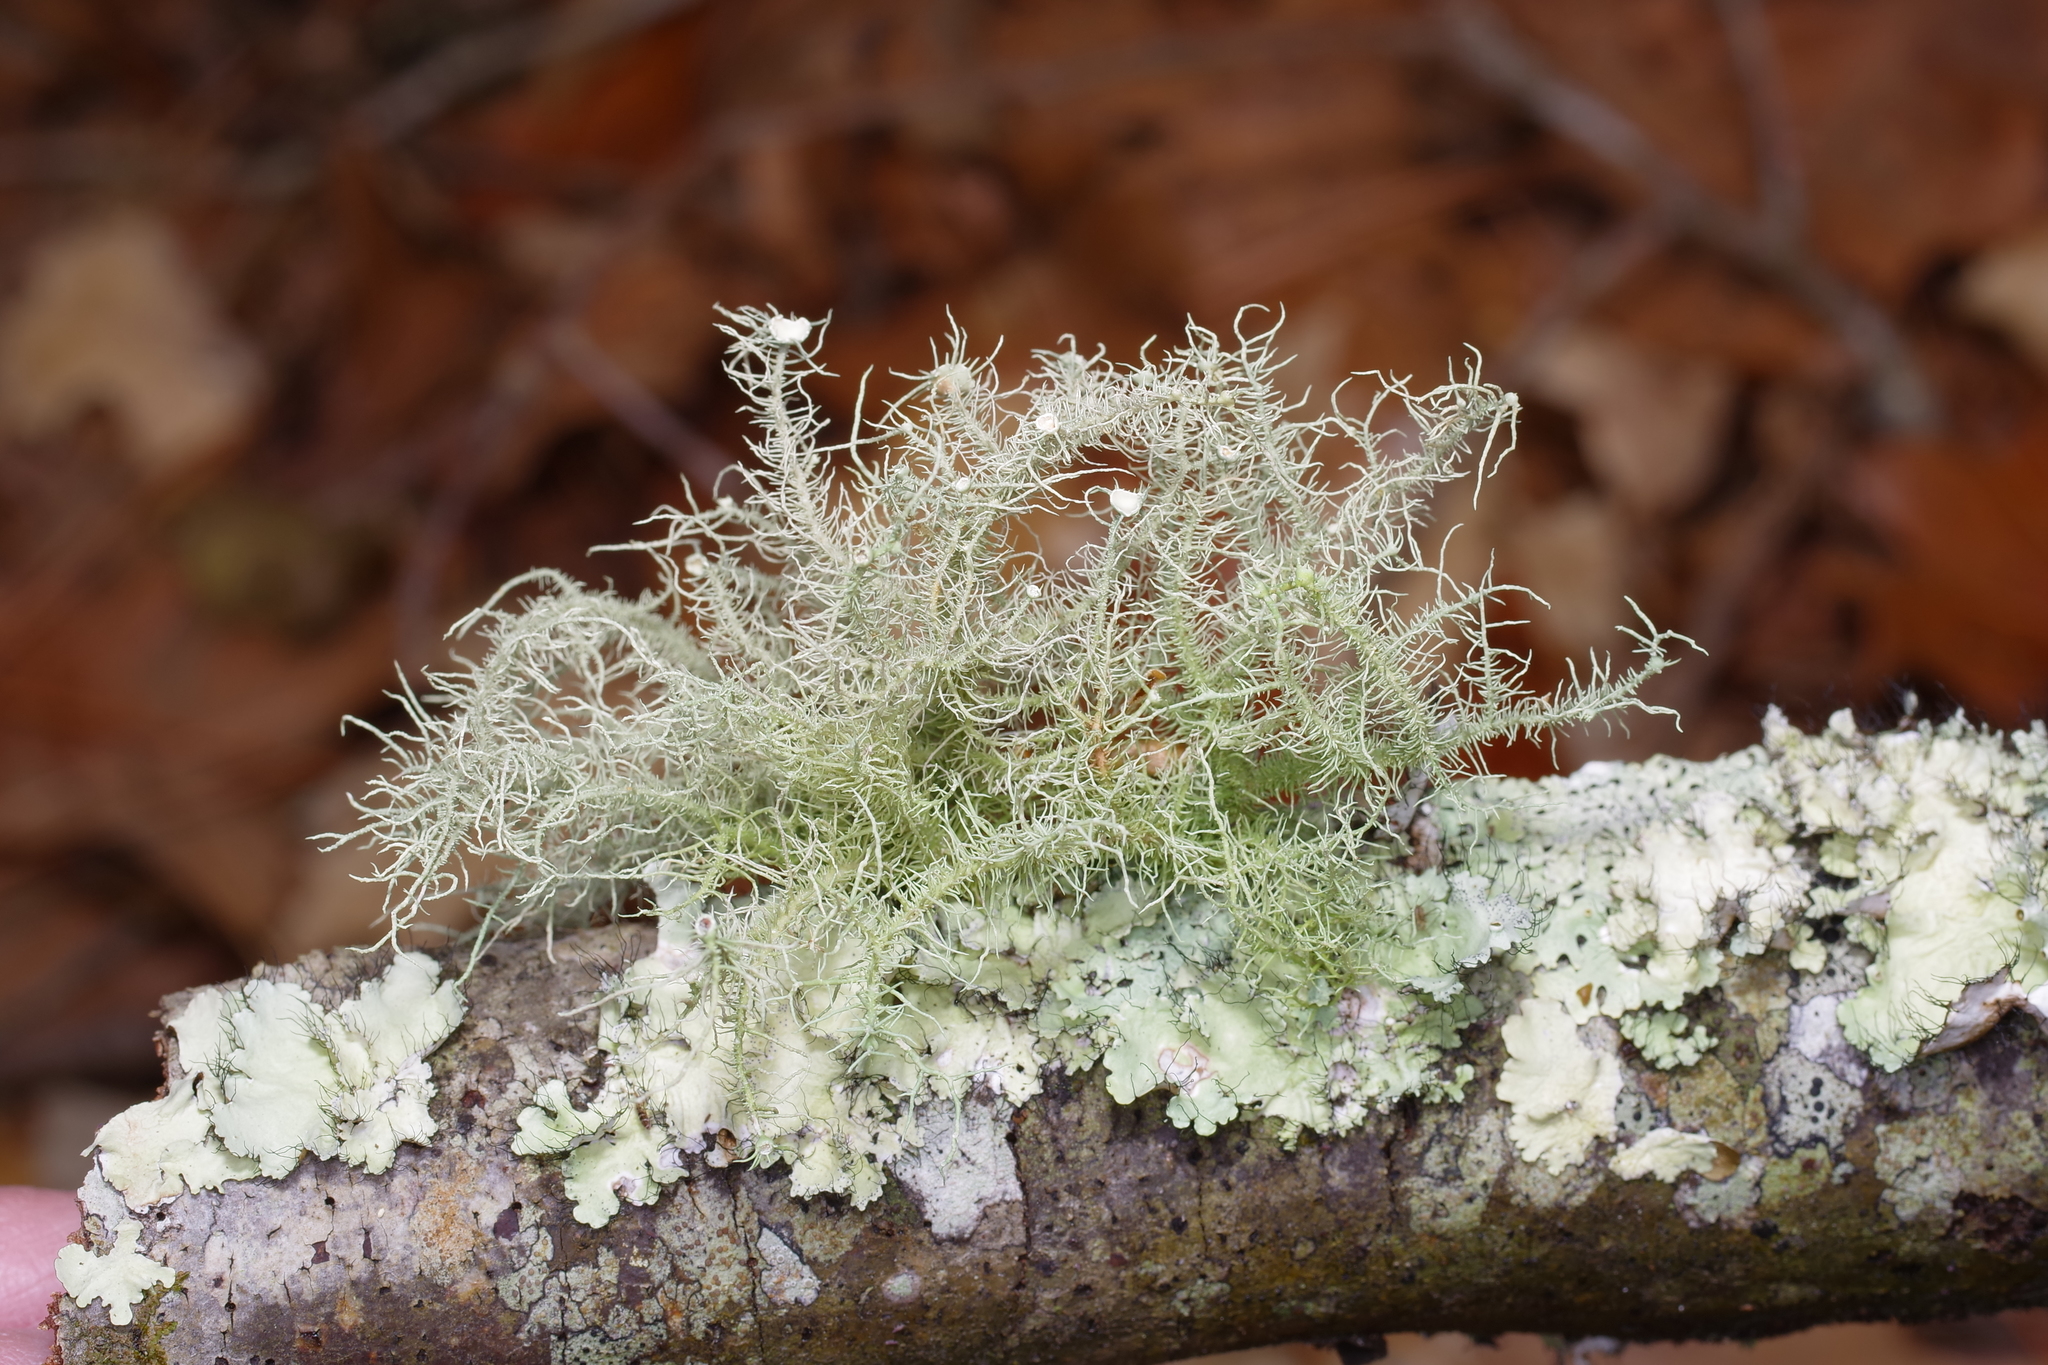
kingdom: Fungi
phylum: Ascomycota
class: Lecanoromycetes
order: Lecanorales
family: Parmeliaceae
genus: Usnea
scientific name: Usnea strigosa
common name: Bushy beard lichen
